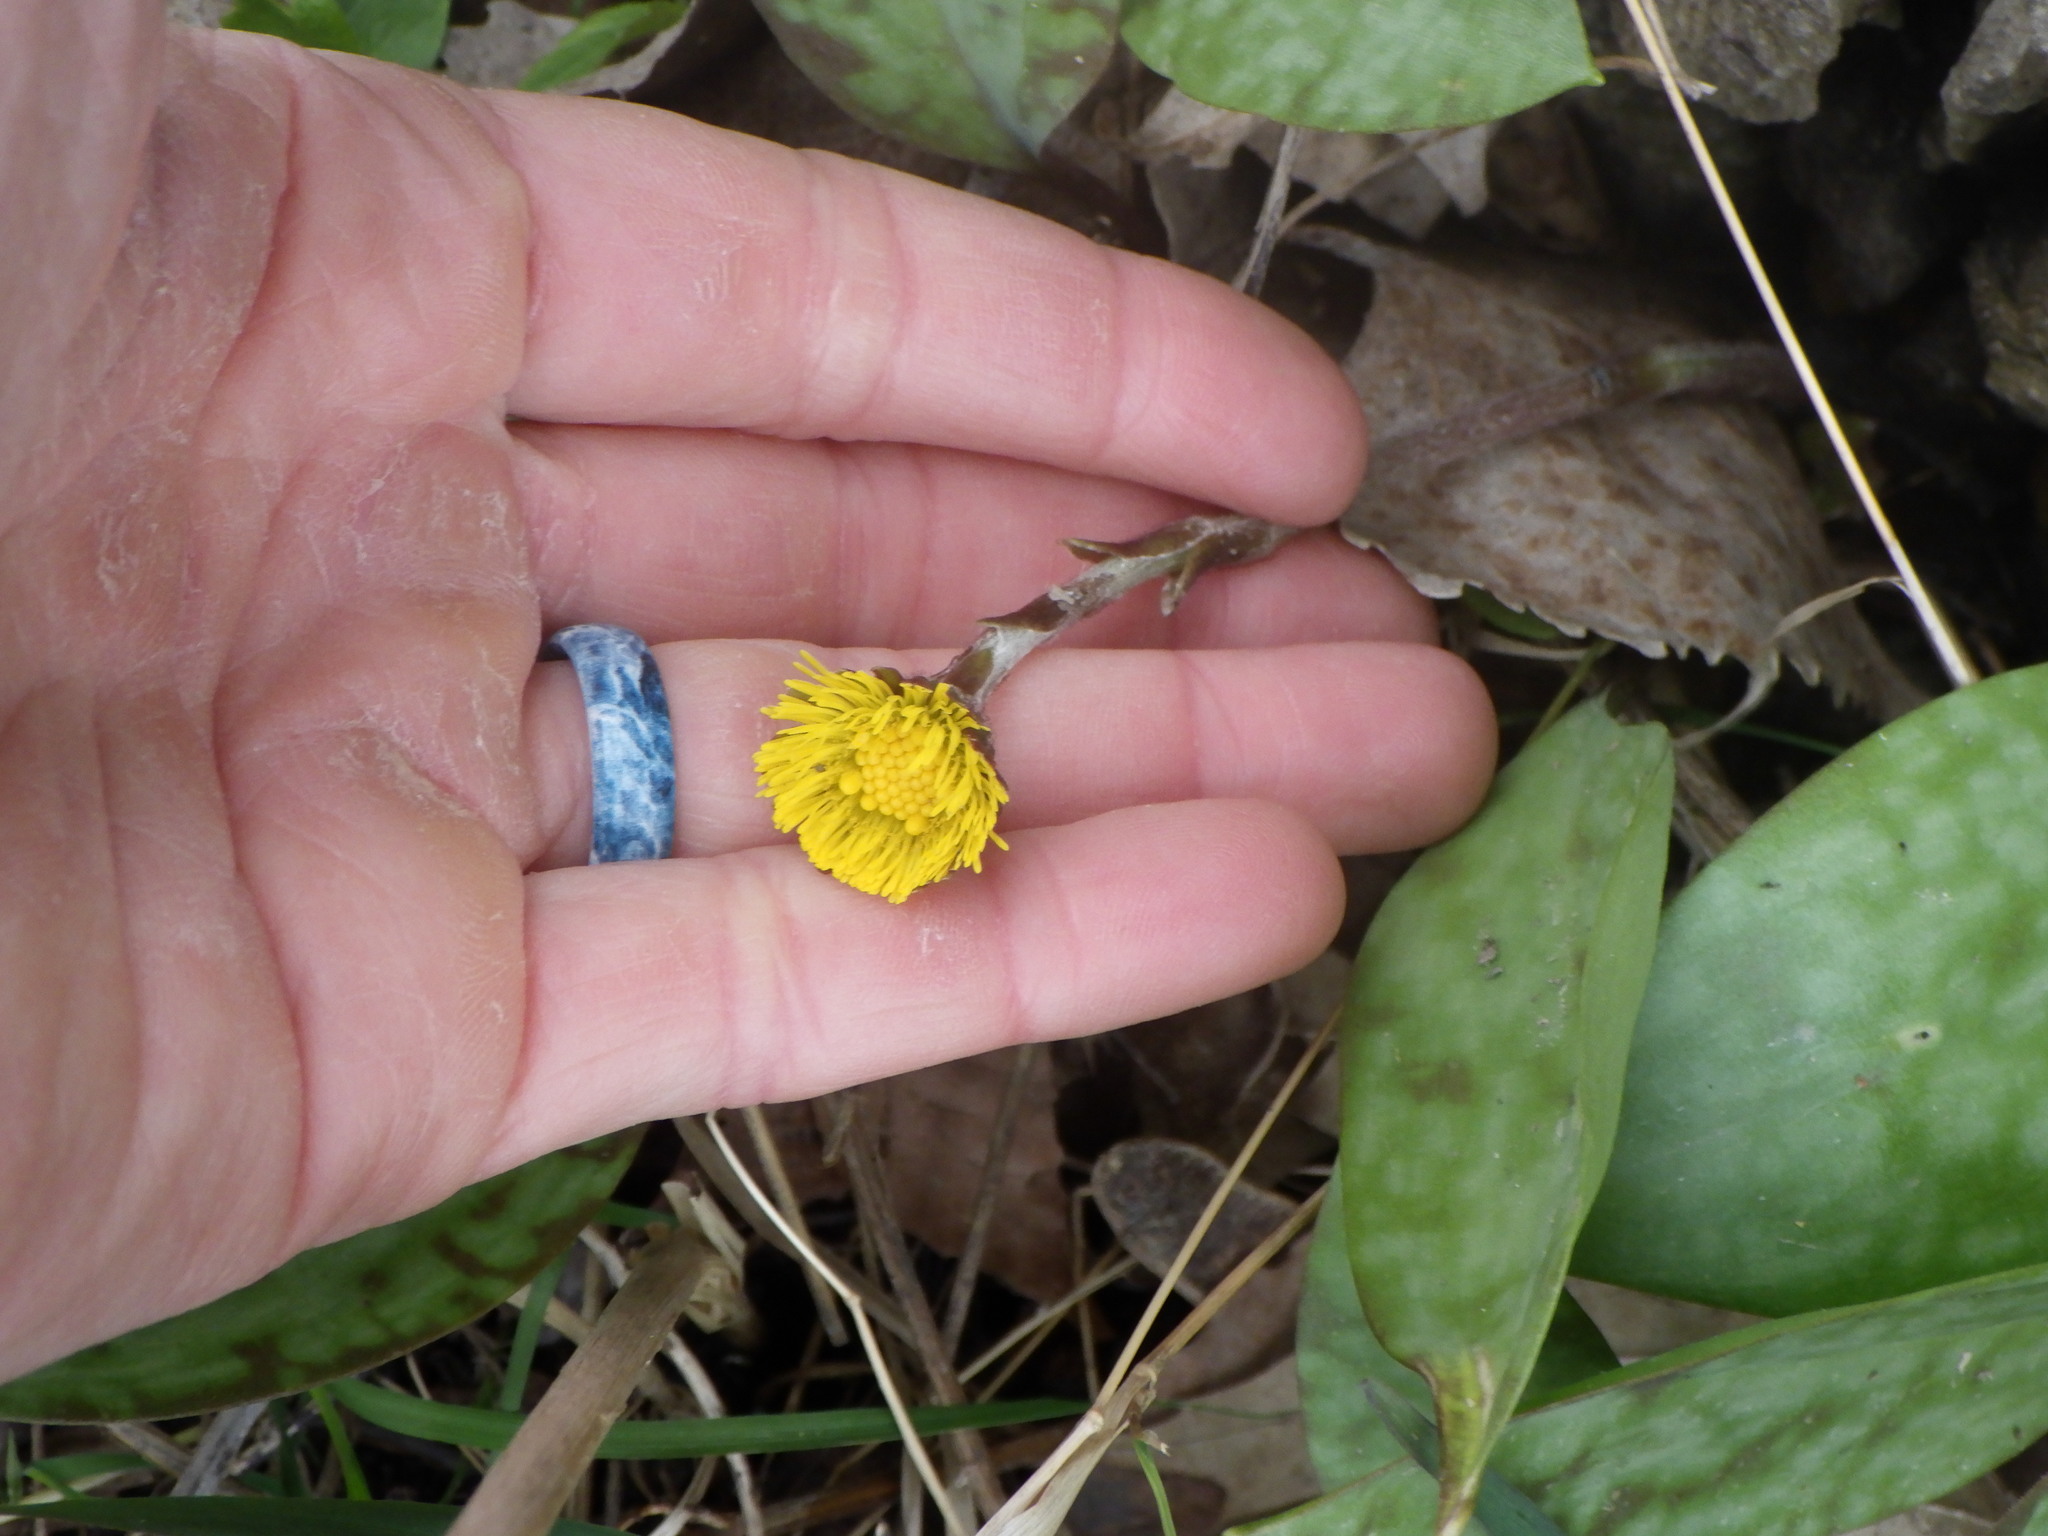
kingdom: Plantae
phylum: Tracheophyta
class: Magnoliopsida
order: Asterales
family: Asteraceae
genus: Tussilago
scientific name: Tussilago farfara
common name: Coltsfoot
